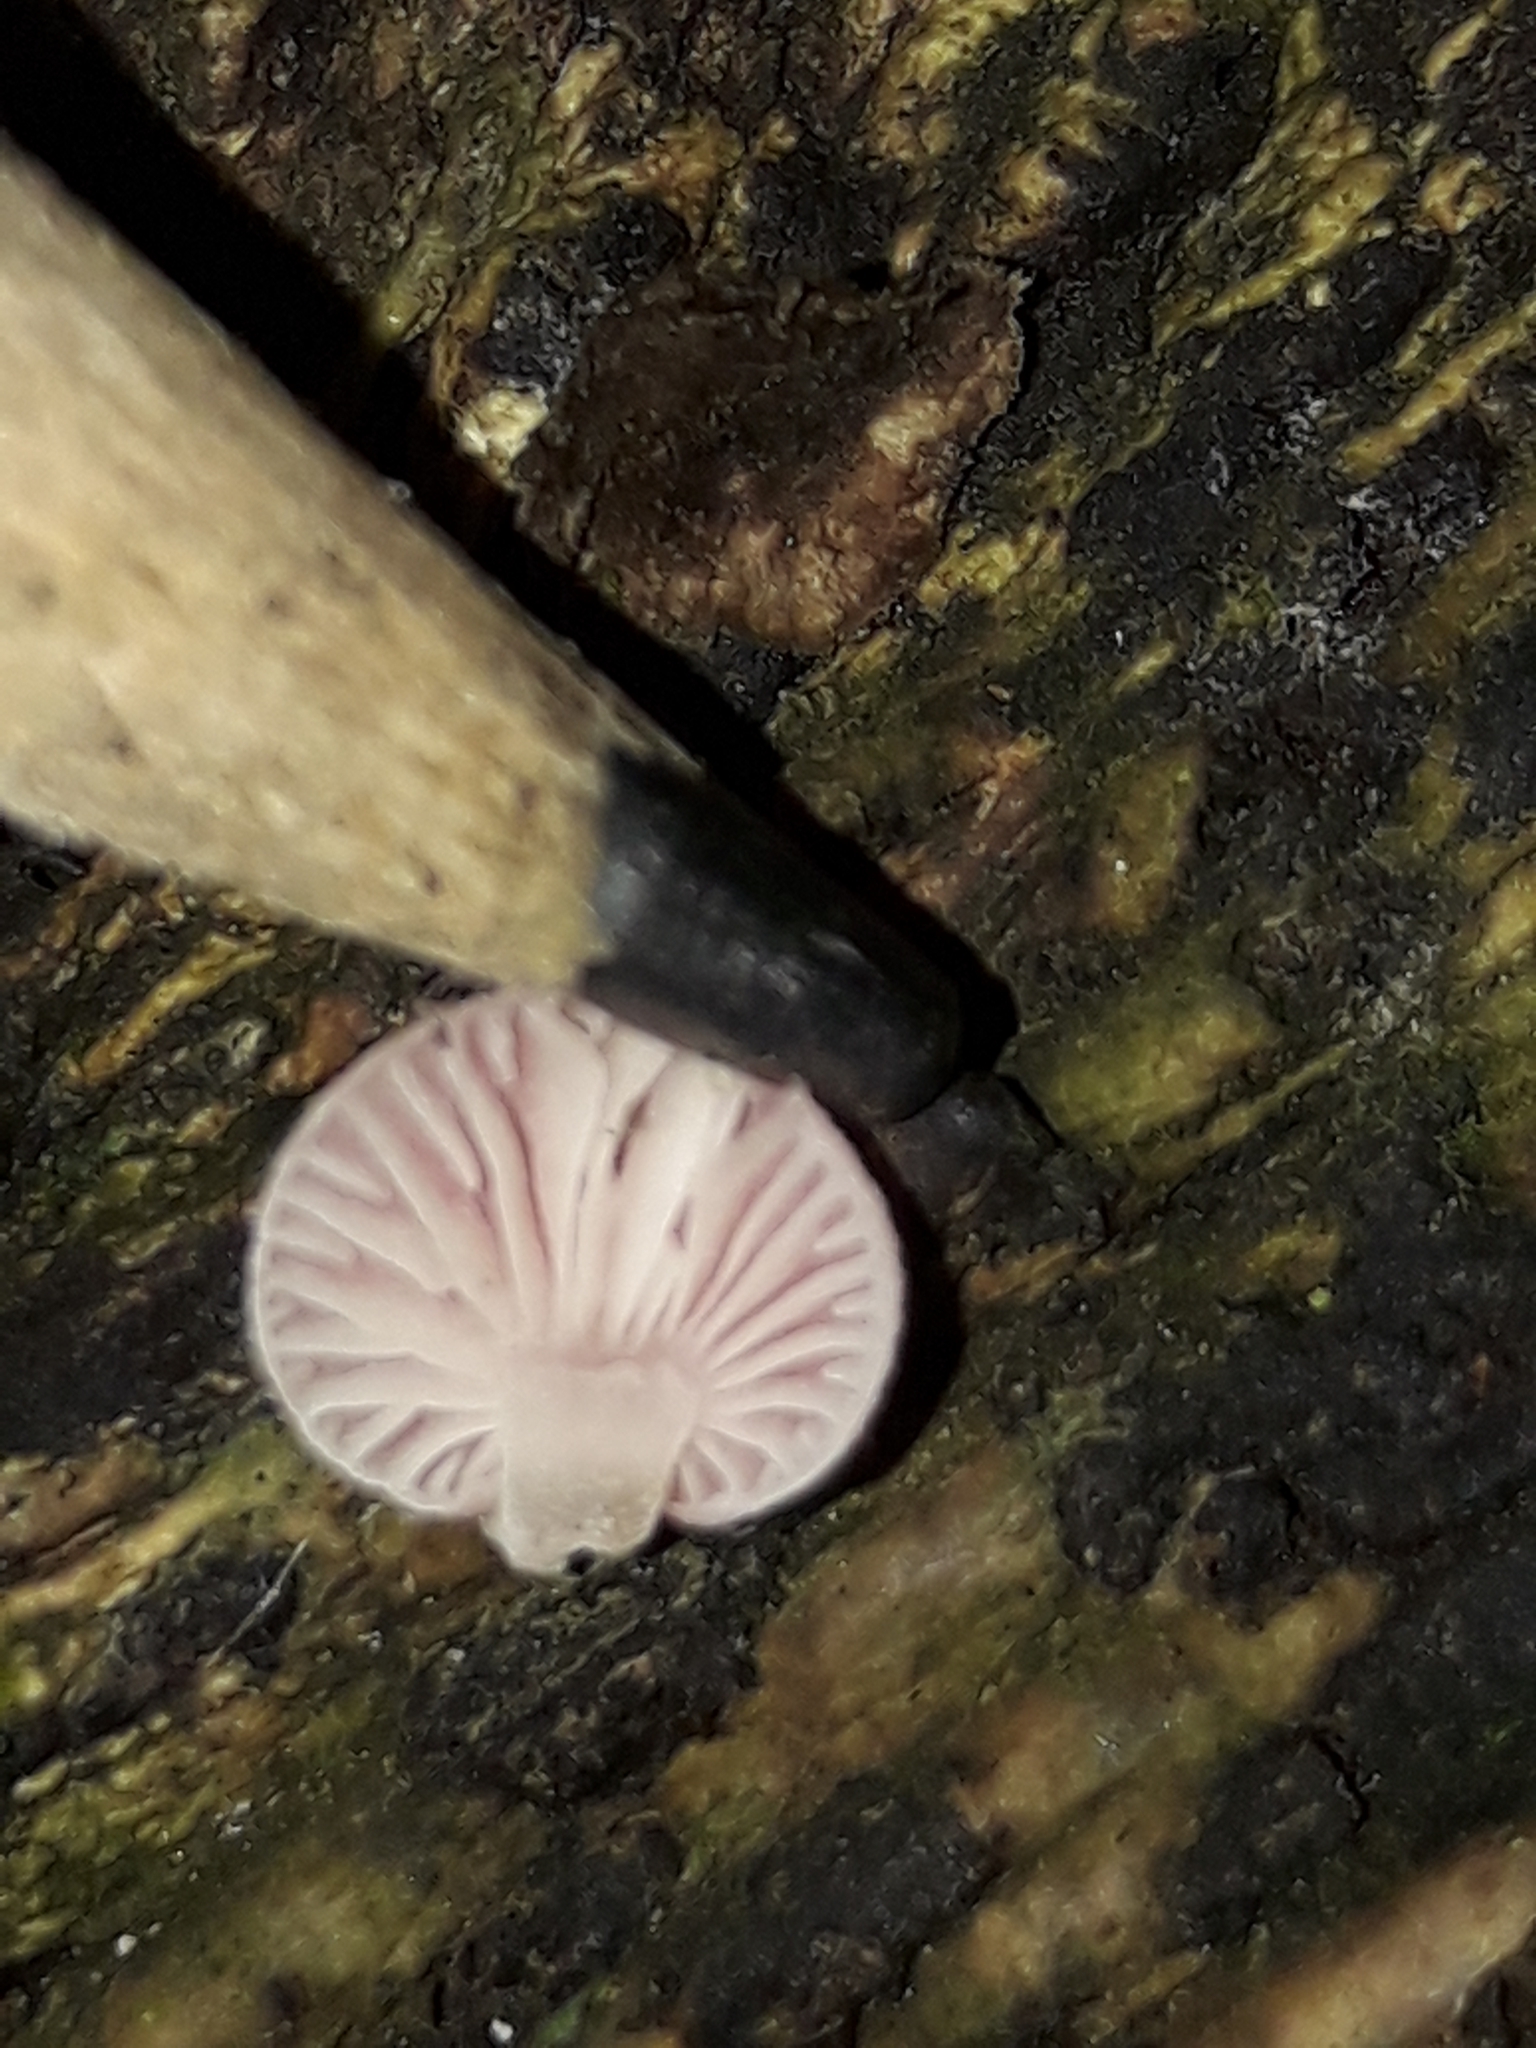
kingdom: Fungi
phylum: Basidiomycota
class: Agaricomycetes
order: Agaricales
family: Mycenaceae
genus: Mycena
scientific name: Mycena roseoflava
